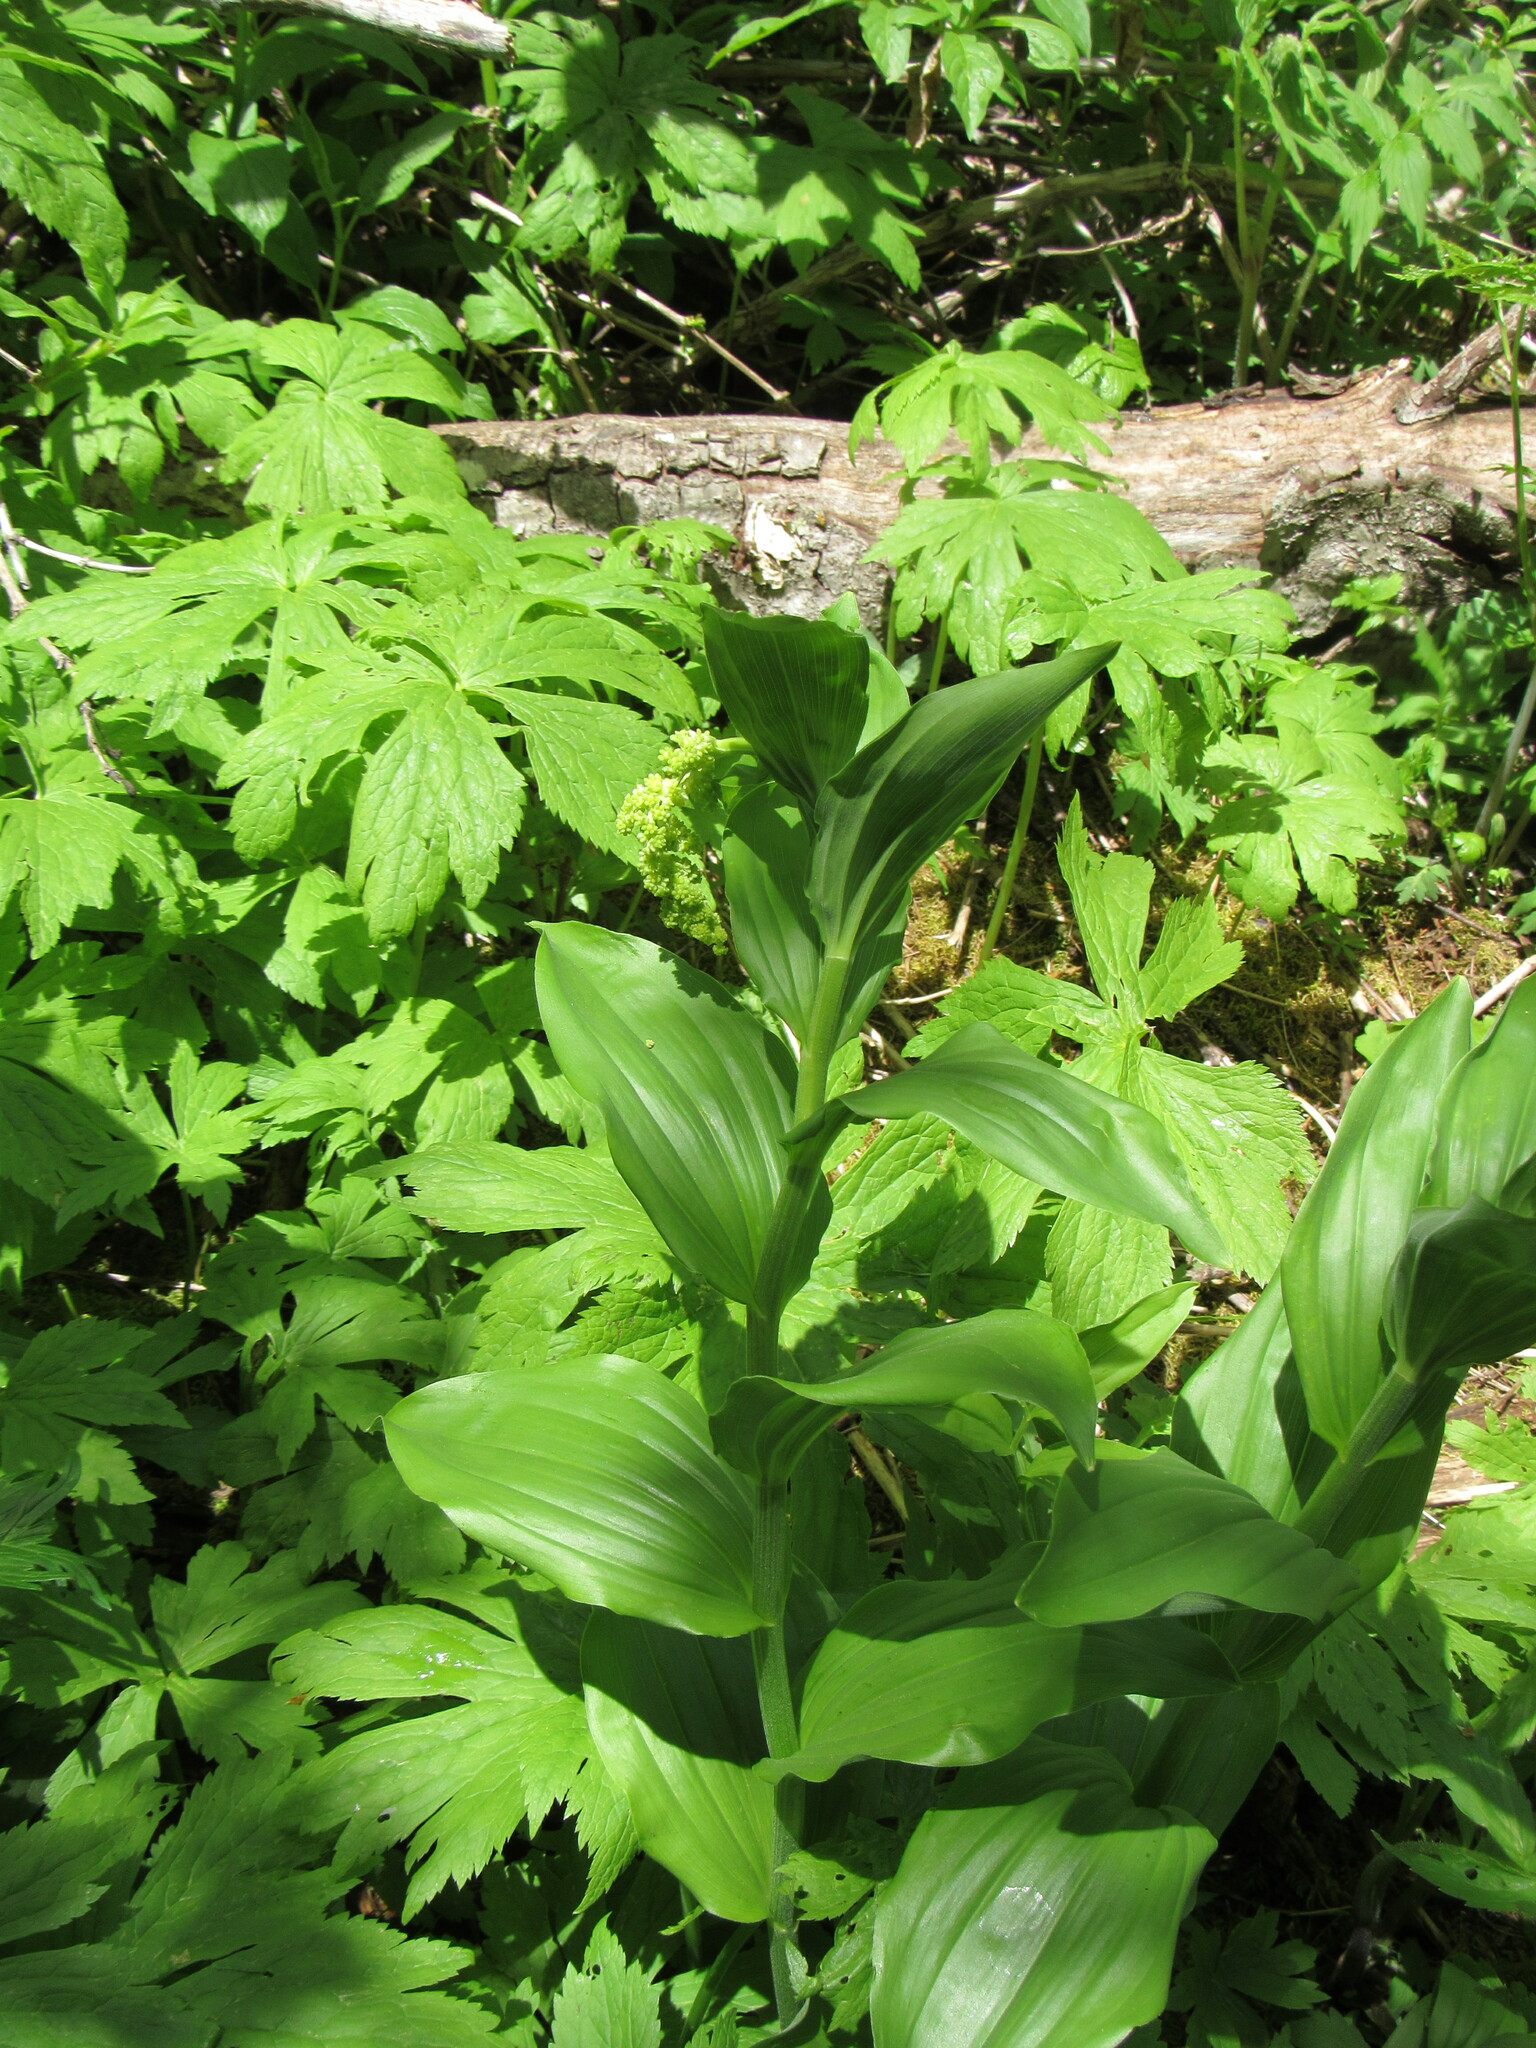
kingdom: Plantae
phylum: Tracheophyta
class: Liliopsida
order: Asparagales
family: Asparagaceae
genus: Maianthemum
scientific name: Maianthemum racemosum
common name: False spikenard
